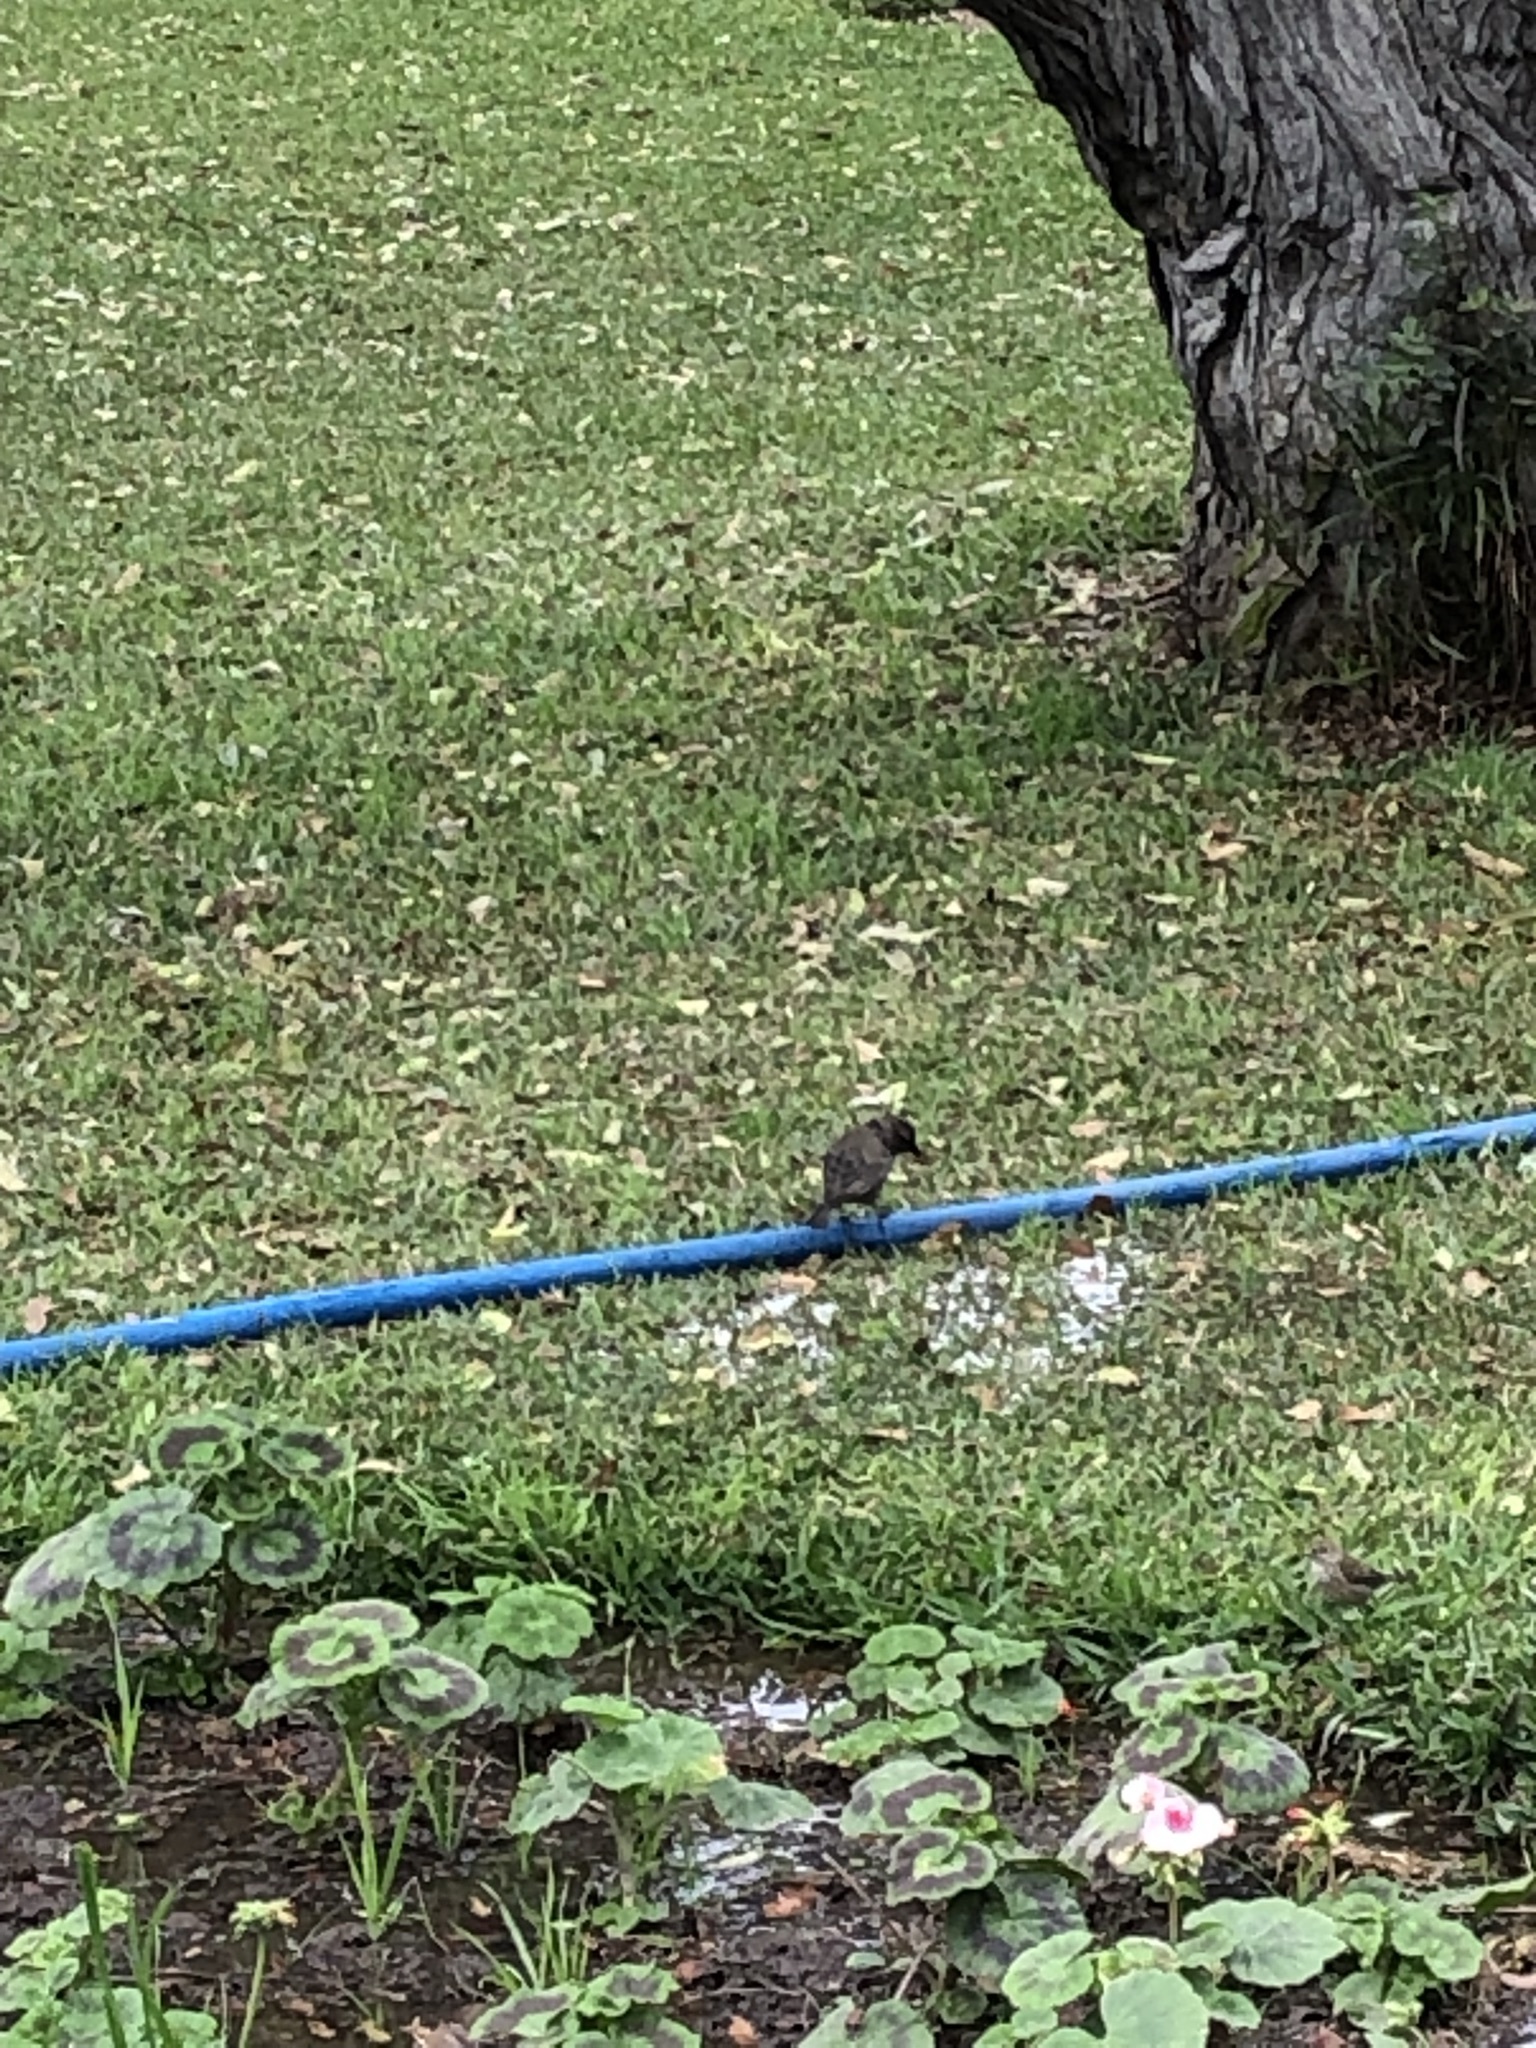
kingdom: Animalia
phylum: Chordata
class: Aves
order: Passeriformes
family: Icteridae
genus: Molothrus
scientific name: Molothrus bonariensis
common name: Shiny cowbird
